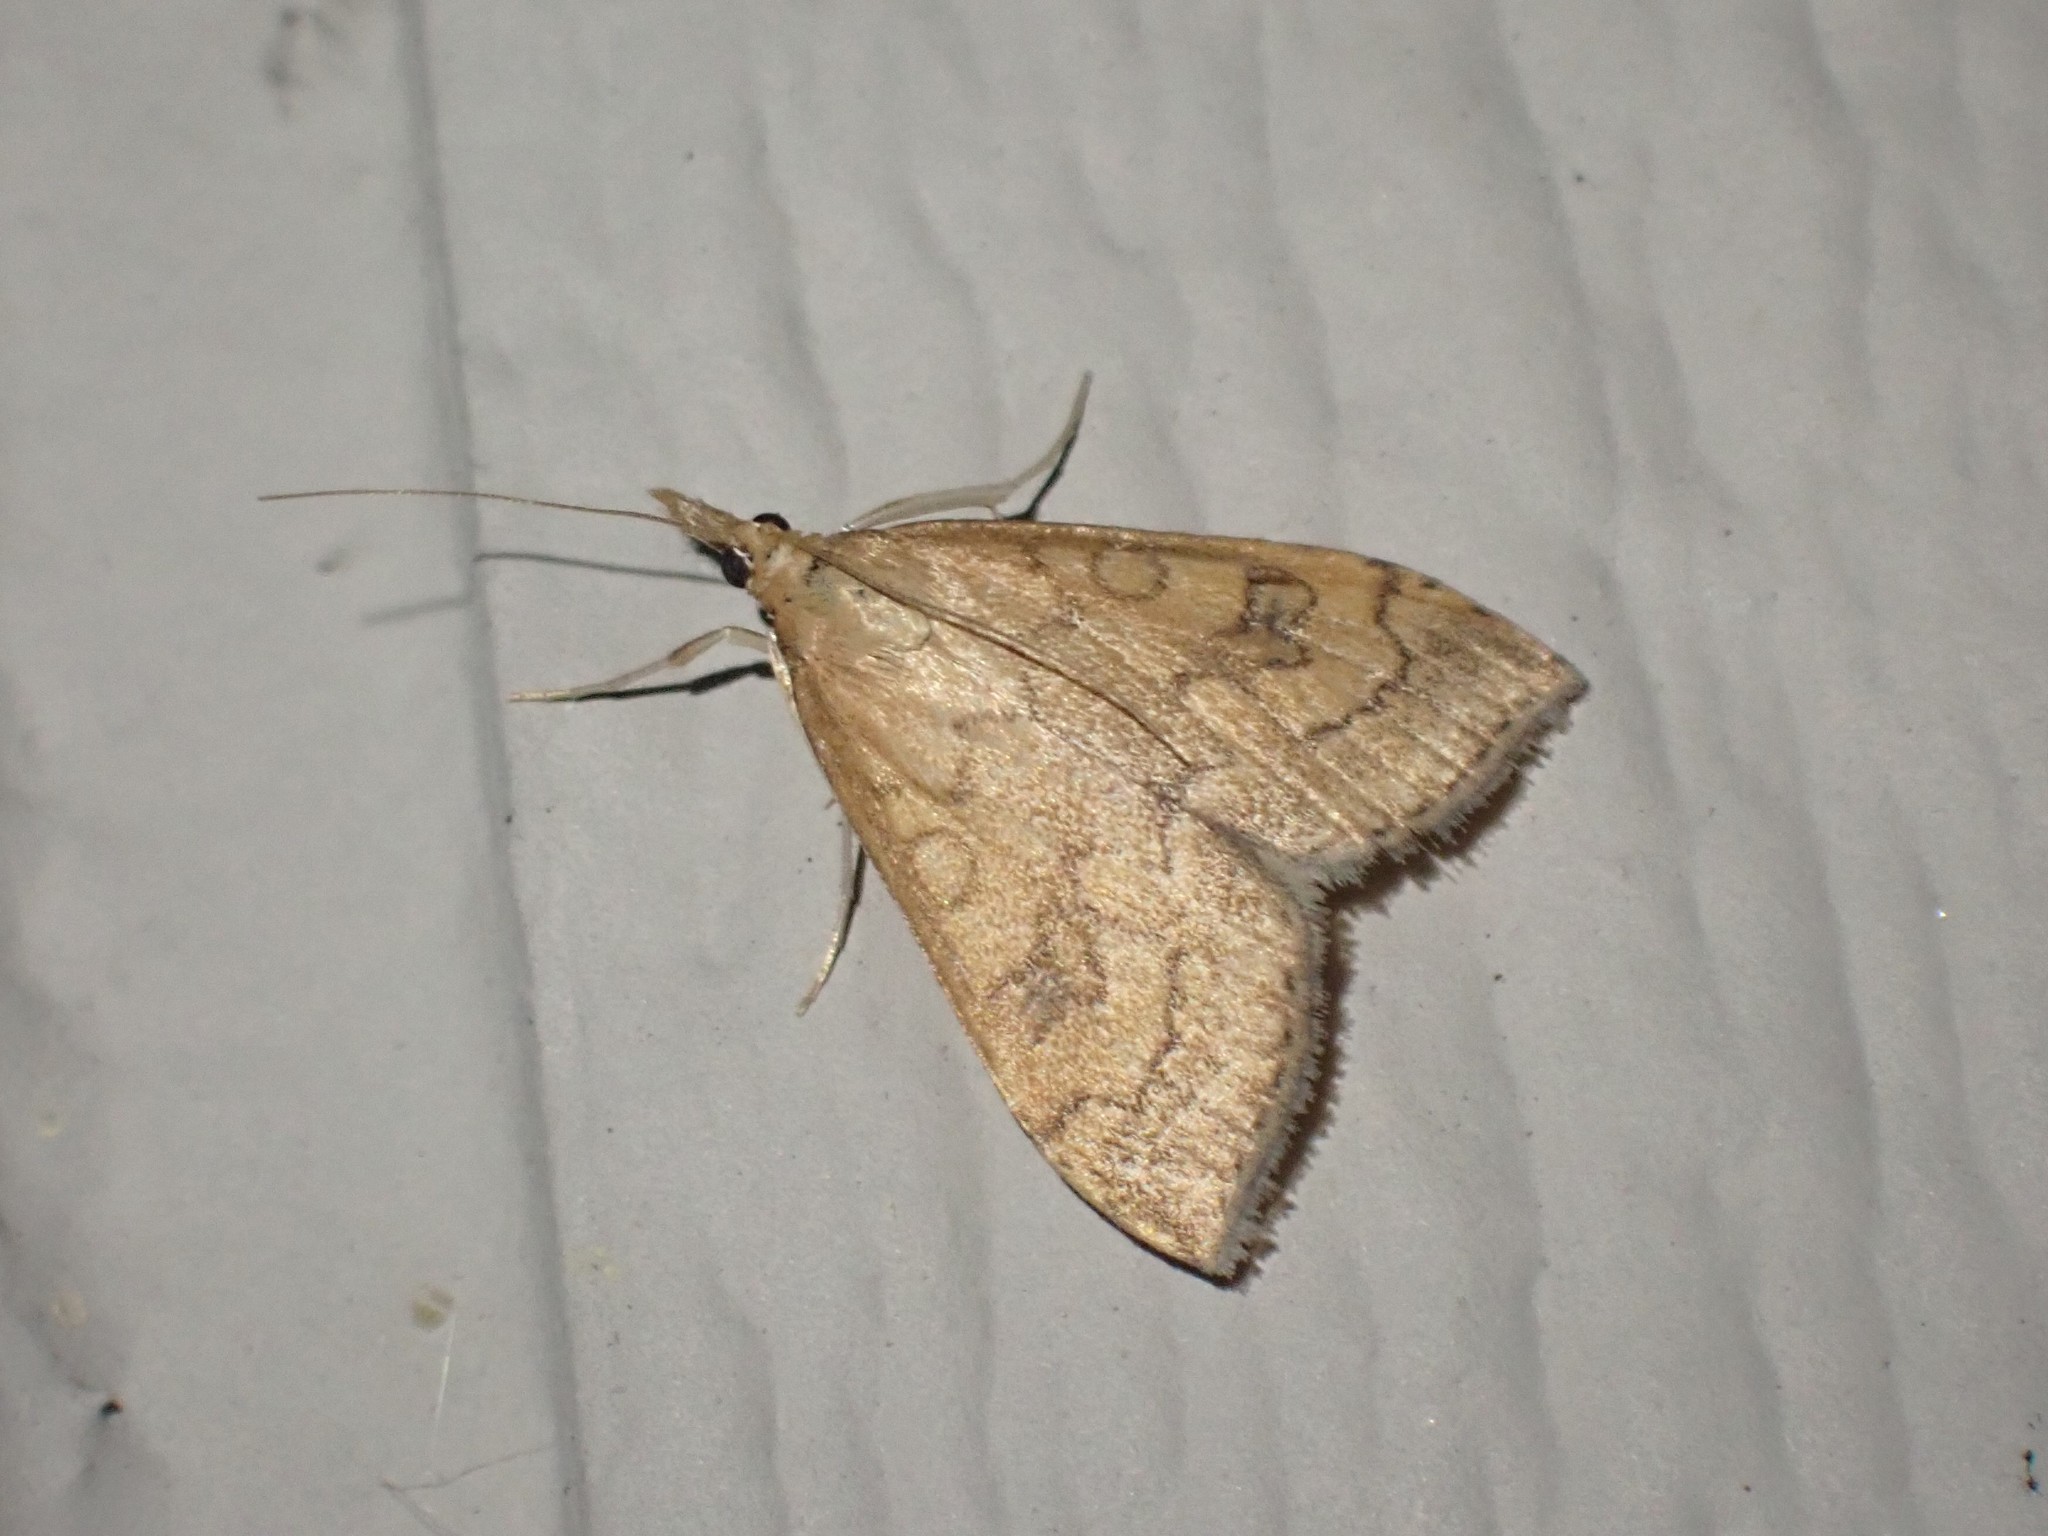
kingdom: Animalia
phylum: Arthropoda
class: Insecta
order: Lepidoptera
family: Crambidae
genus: Udea
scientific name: Udea profundalis
